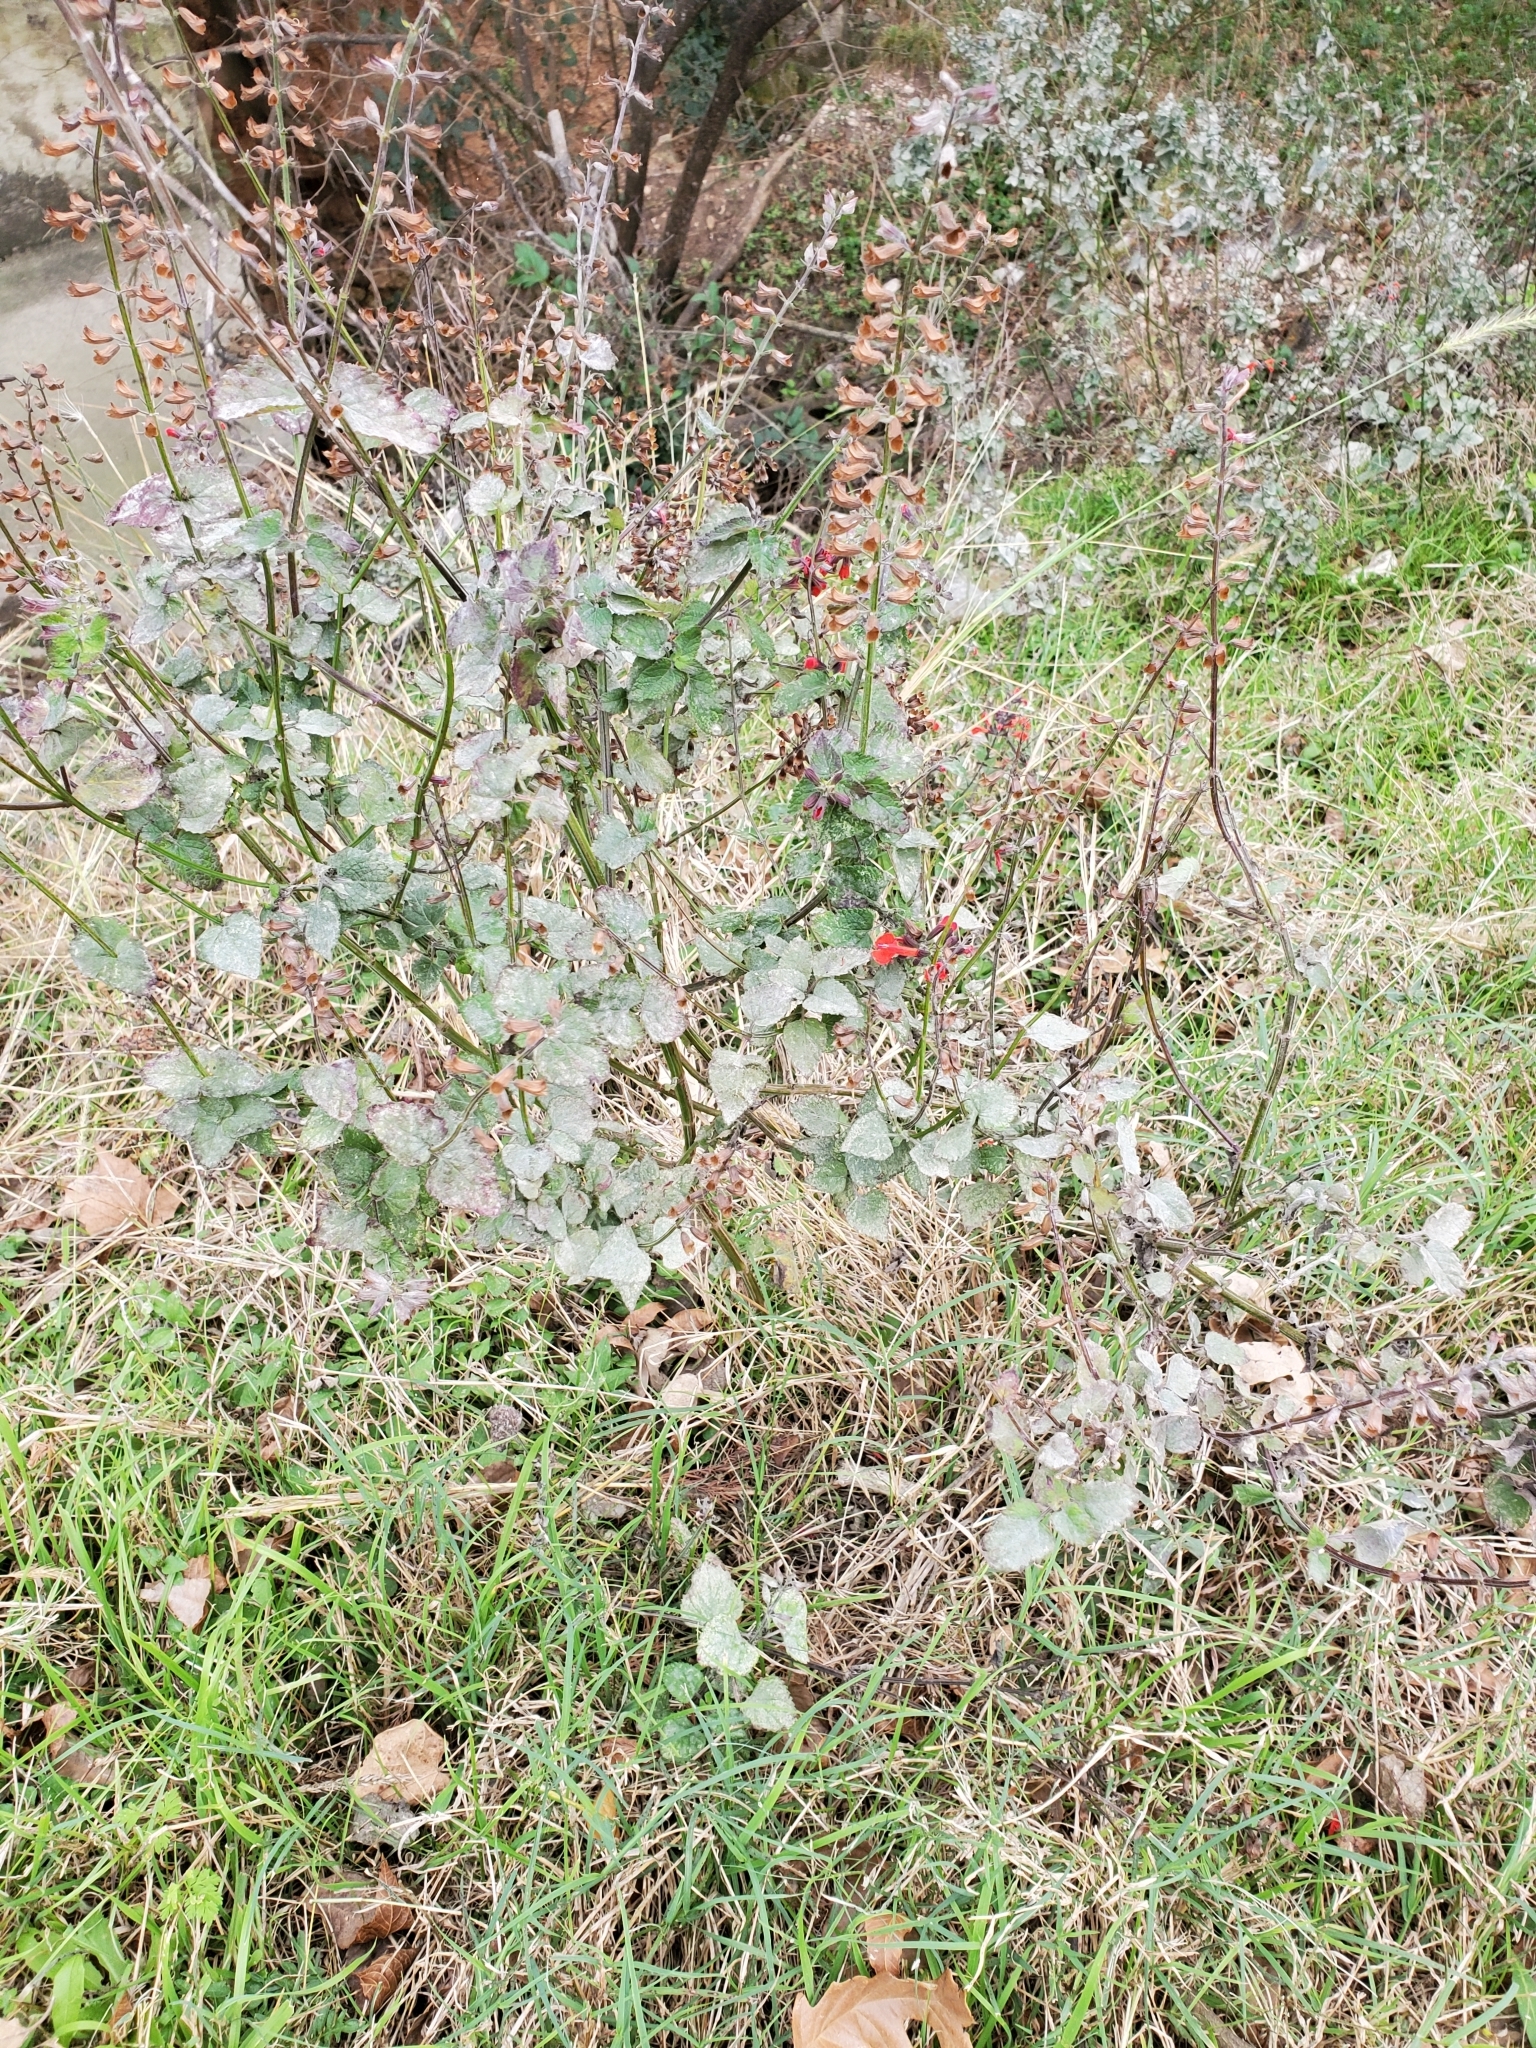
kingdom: Plantae
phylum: Tracheophyta
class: Magnoliopsida
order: Lamiales
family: Lamiaceae
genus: Salvia
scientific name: Salvia coccinea
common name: Blood sage
